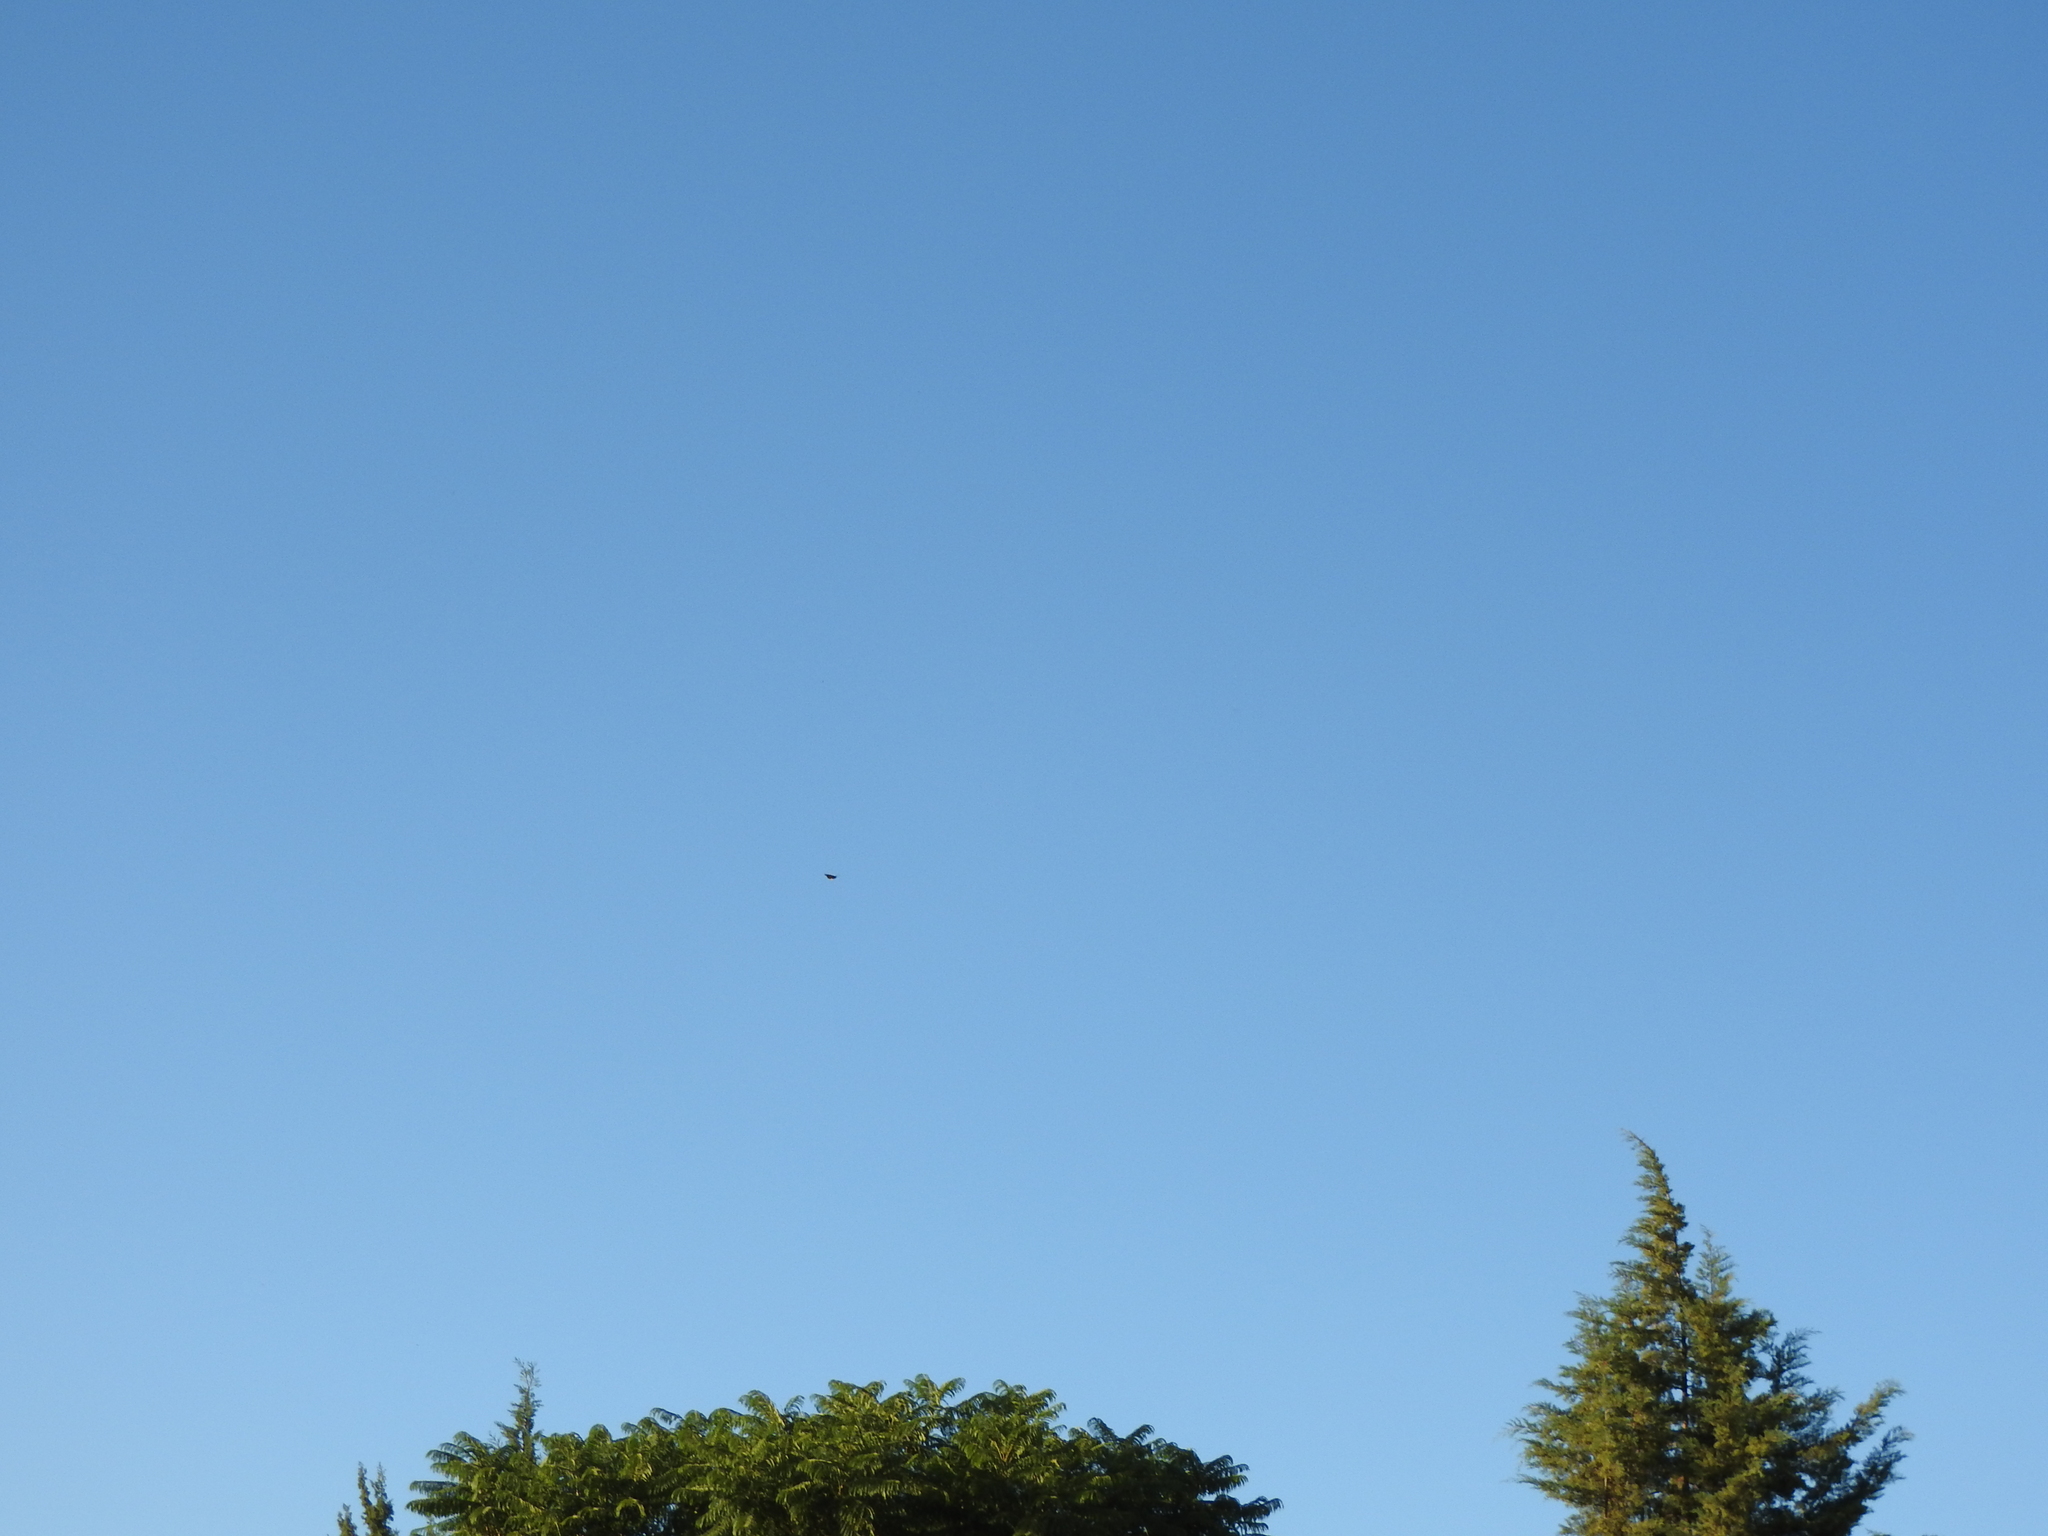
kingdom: Animalia
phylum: Arthropoda
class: Insecta
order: Lepidoptera
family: Nymphalidae
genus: Danaus
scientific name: Danaus plexippus
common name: Monarch
